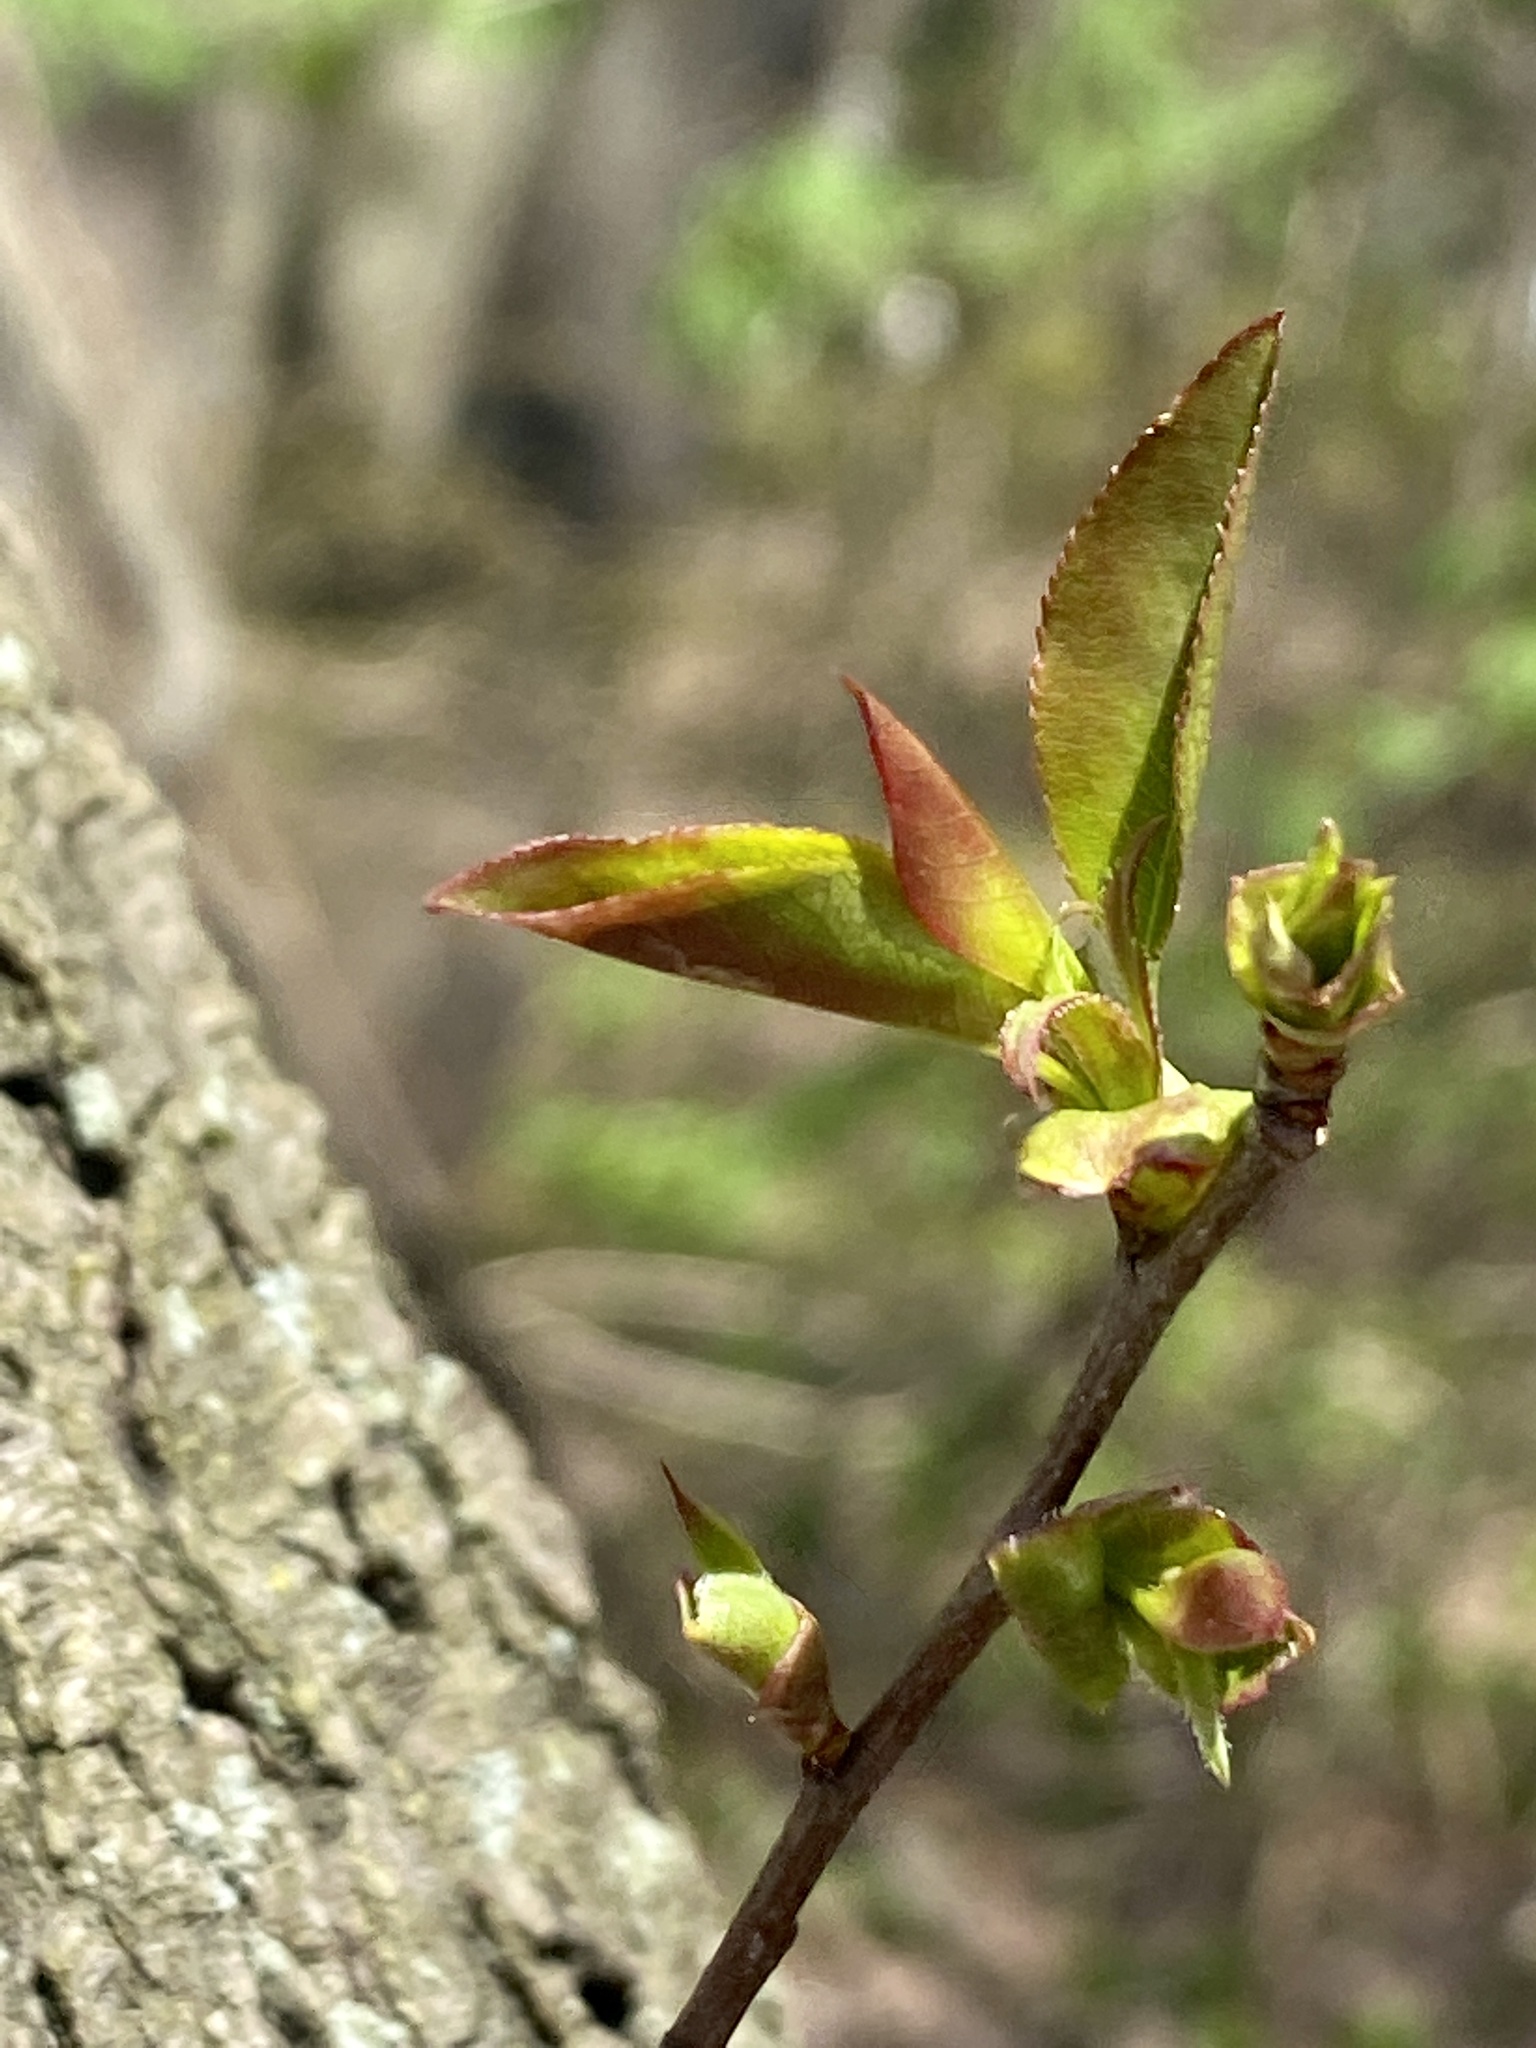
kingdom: Plantae
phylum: Tracheophyta
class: Magnoliopsida
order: Rosales
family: Rosaceae
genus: Prunus
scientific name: Prunus serotina
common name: Black cherry
